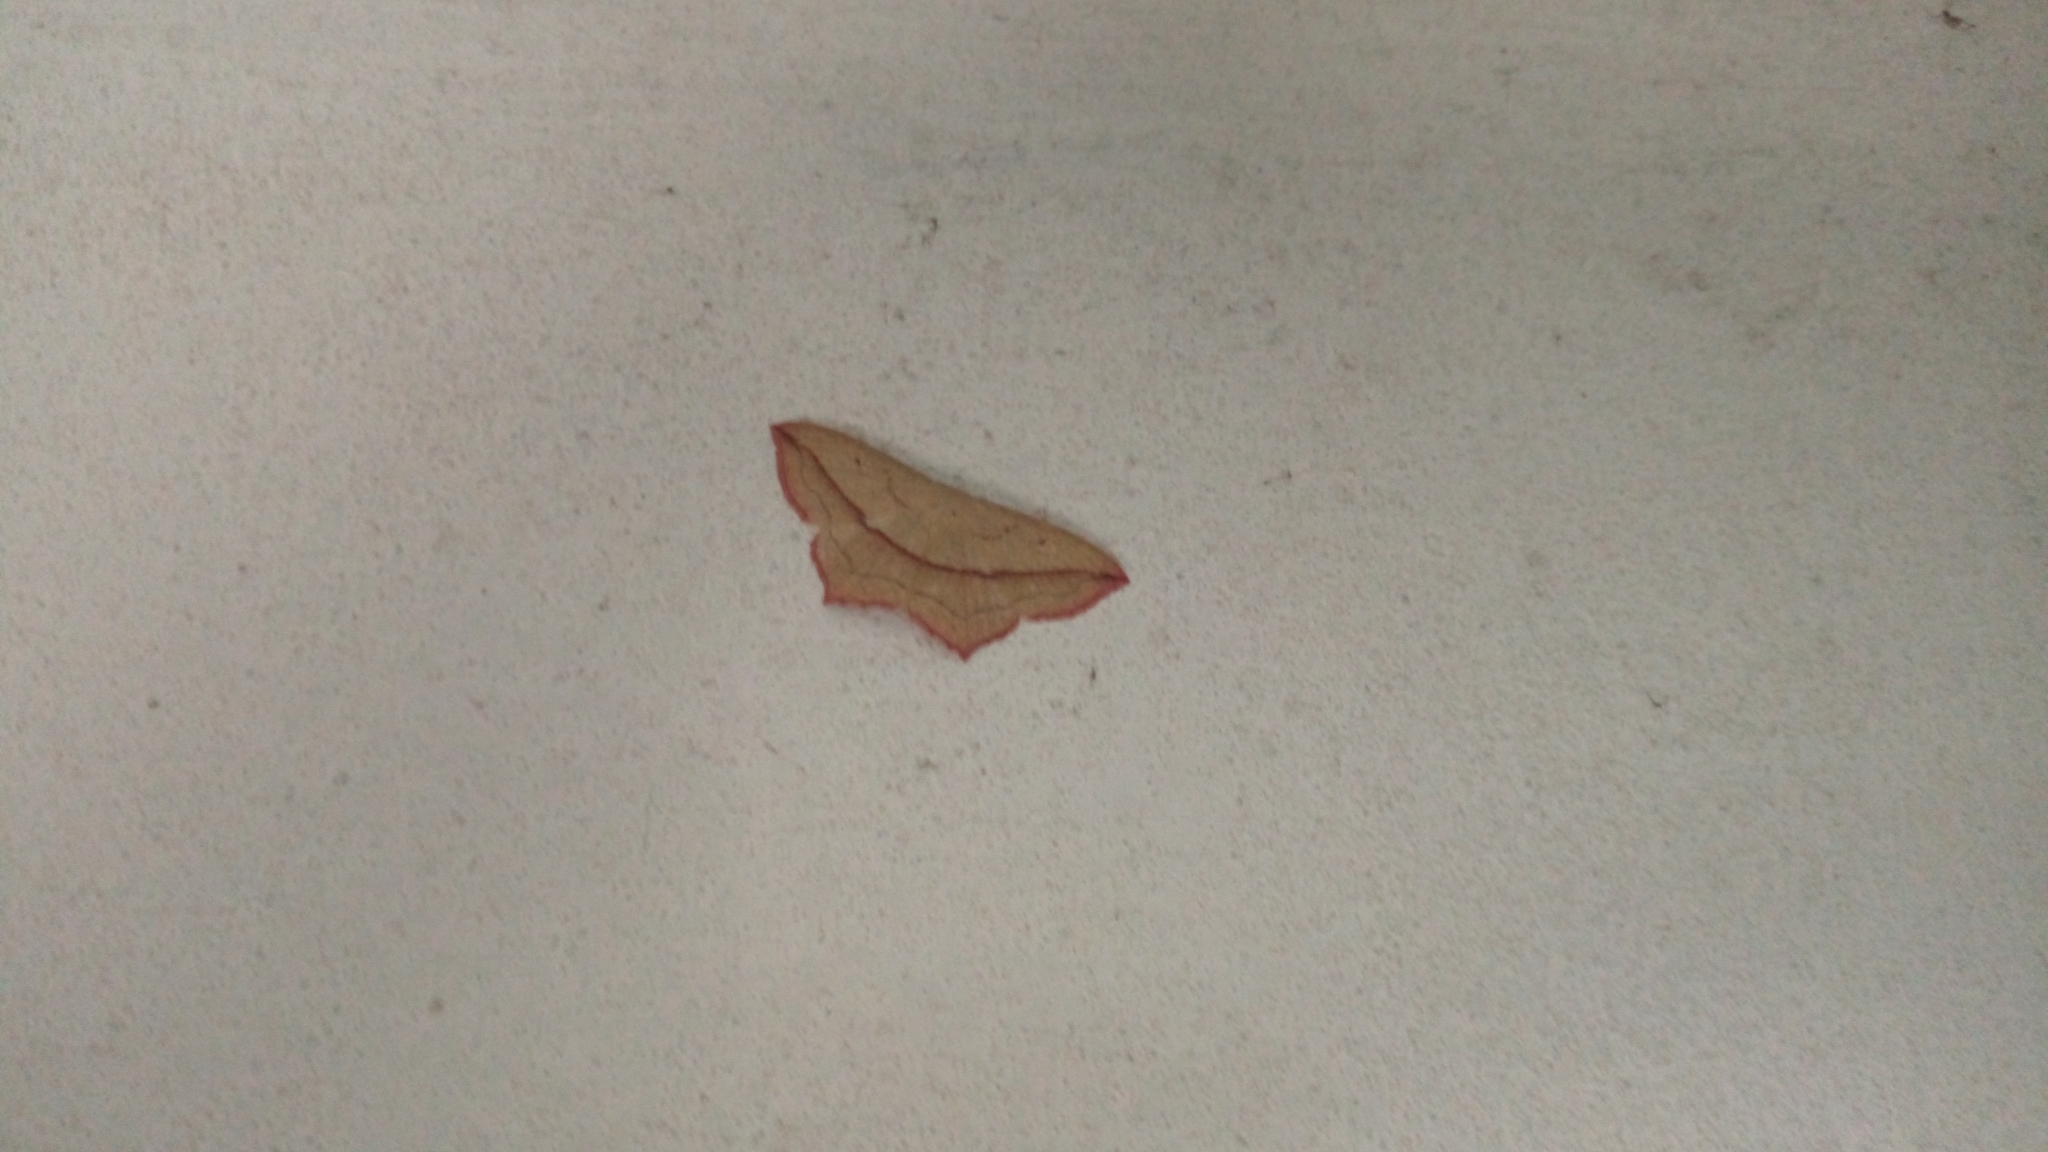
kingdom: Animalia
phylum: Arthropoda
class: Insecta
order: Lepidoptera
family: Geometridae
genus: Timandra
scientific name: Timandra comae
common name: Blood-vein
